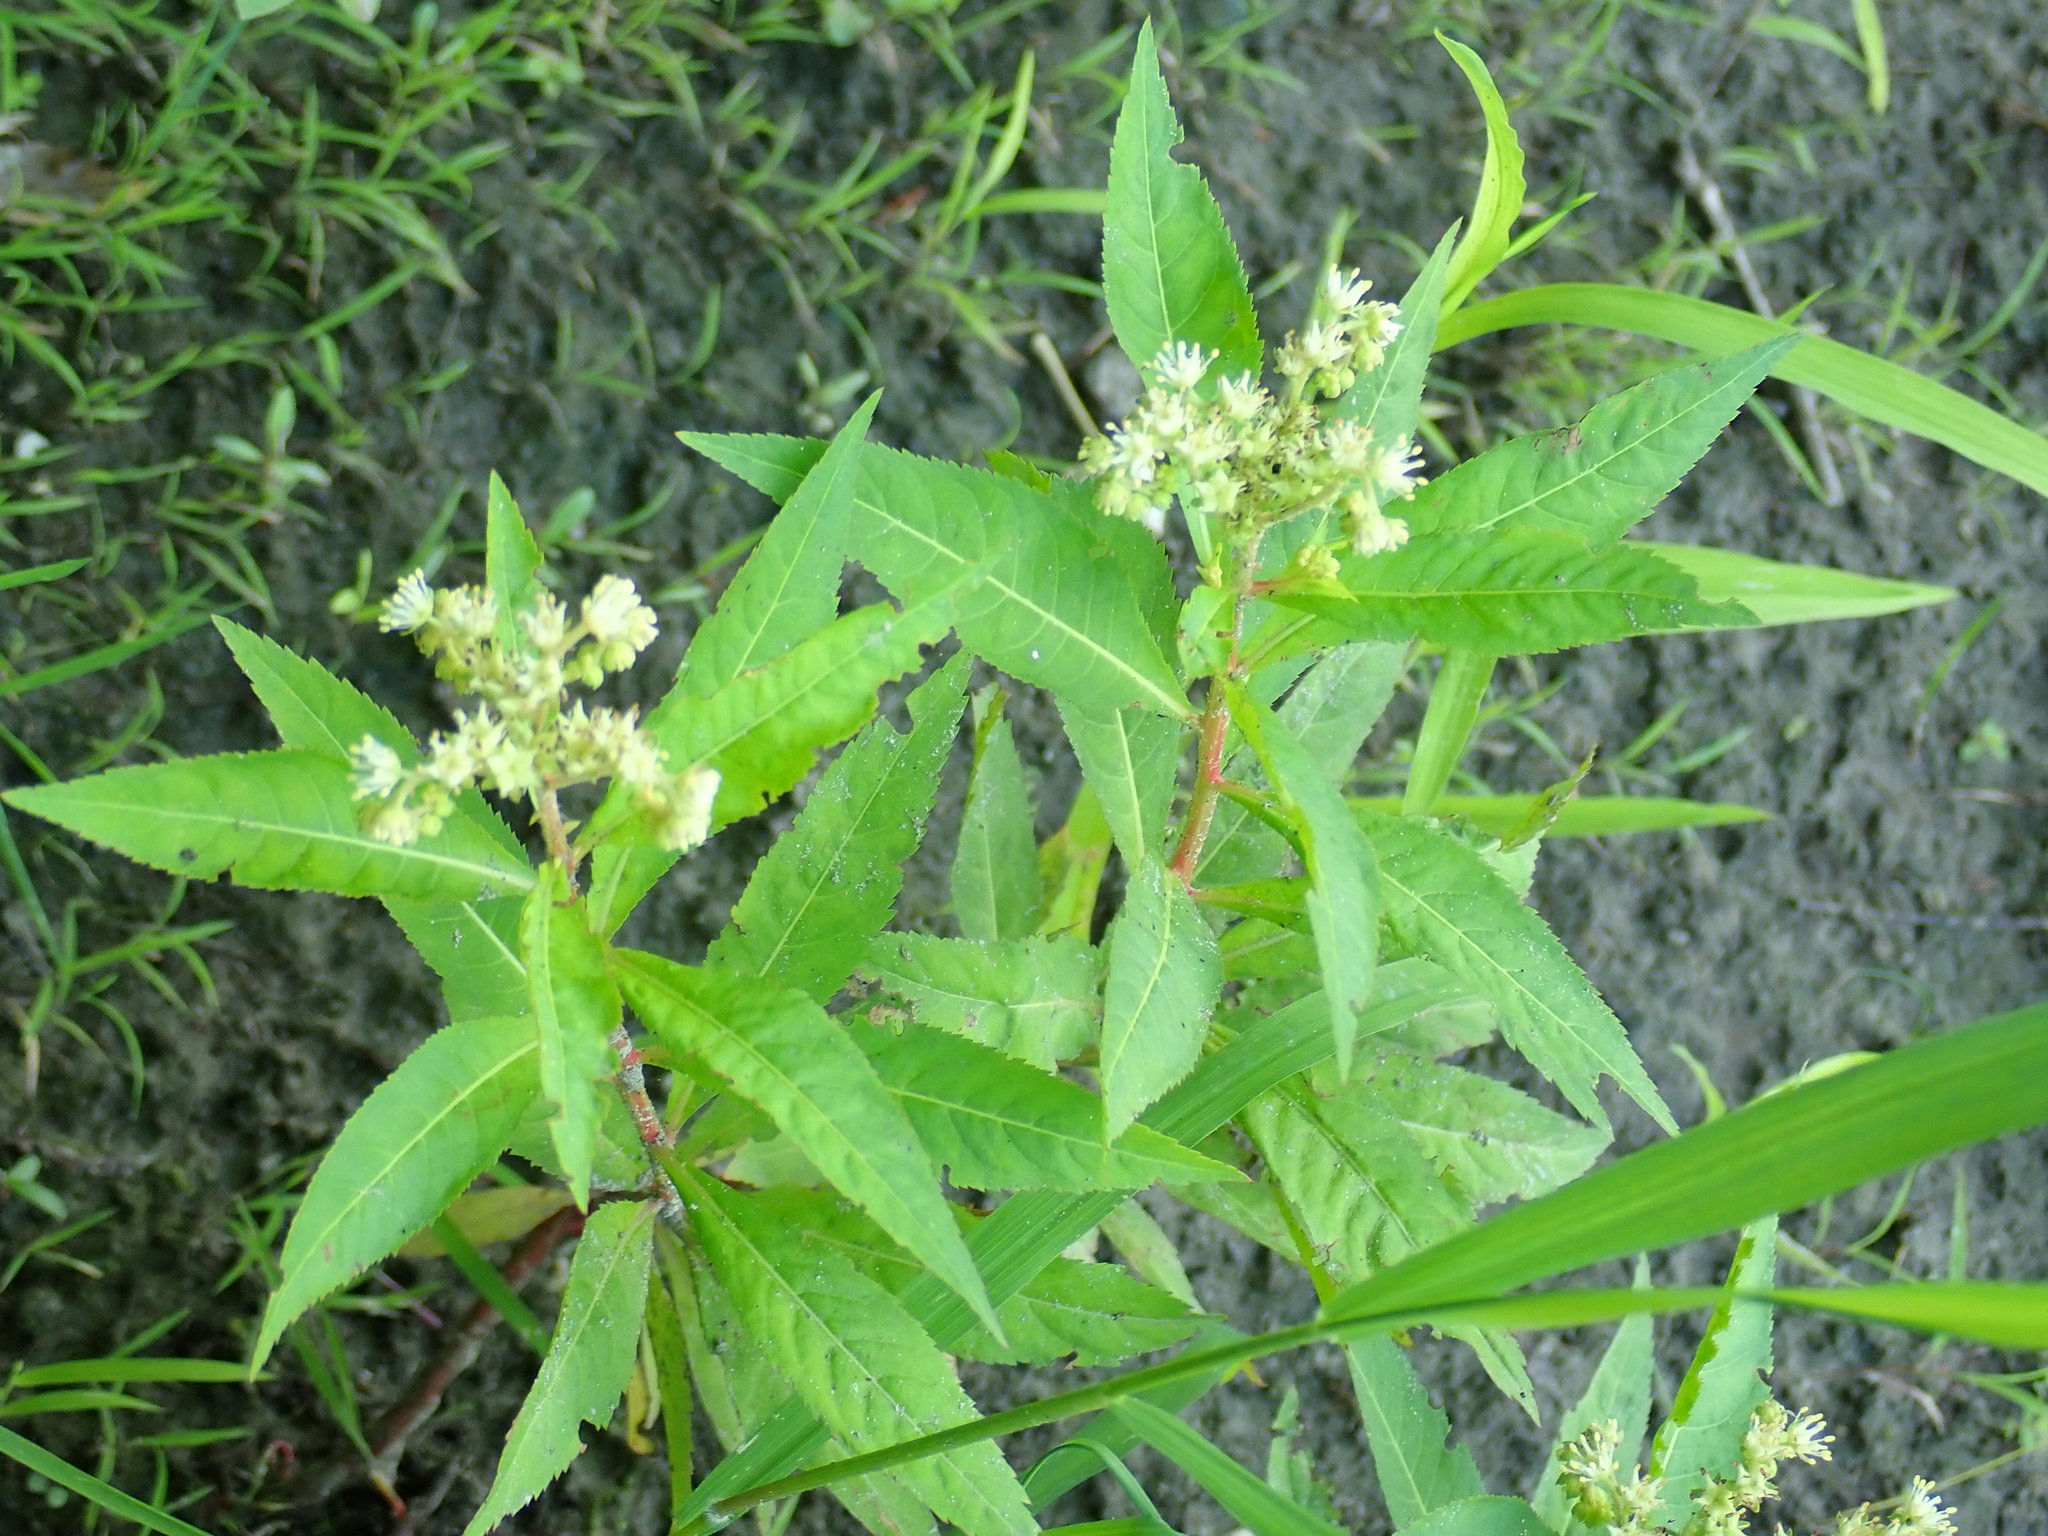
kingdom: Plantae
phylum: Tracheophyta
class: Magnoliopsida
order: Saxifragales
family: Penthoraceae
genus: Penthorum
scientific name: Penthorum sedoides
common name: Ditch stonecrop
